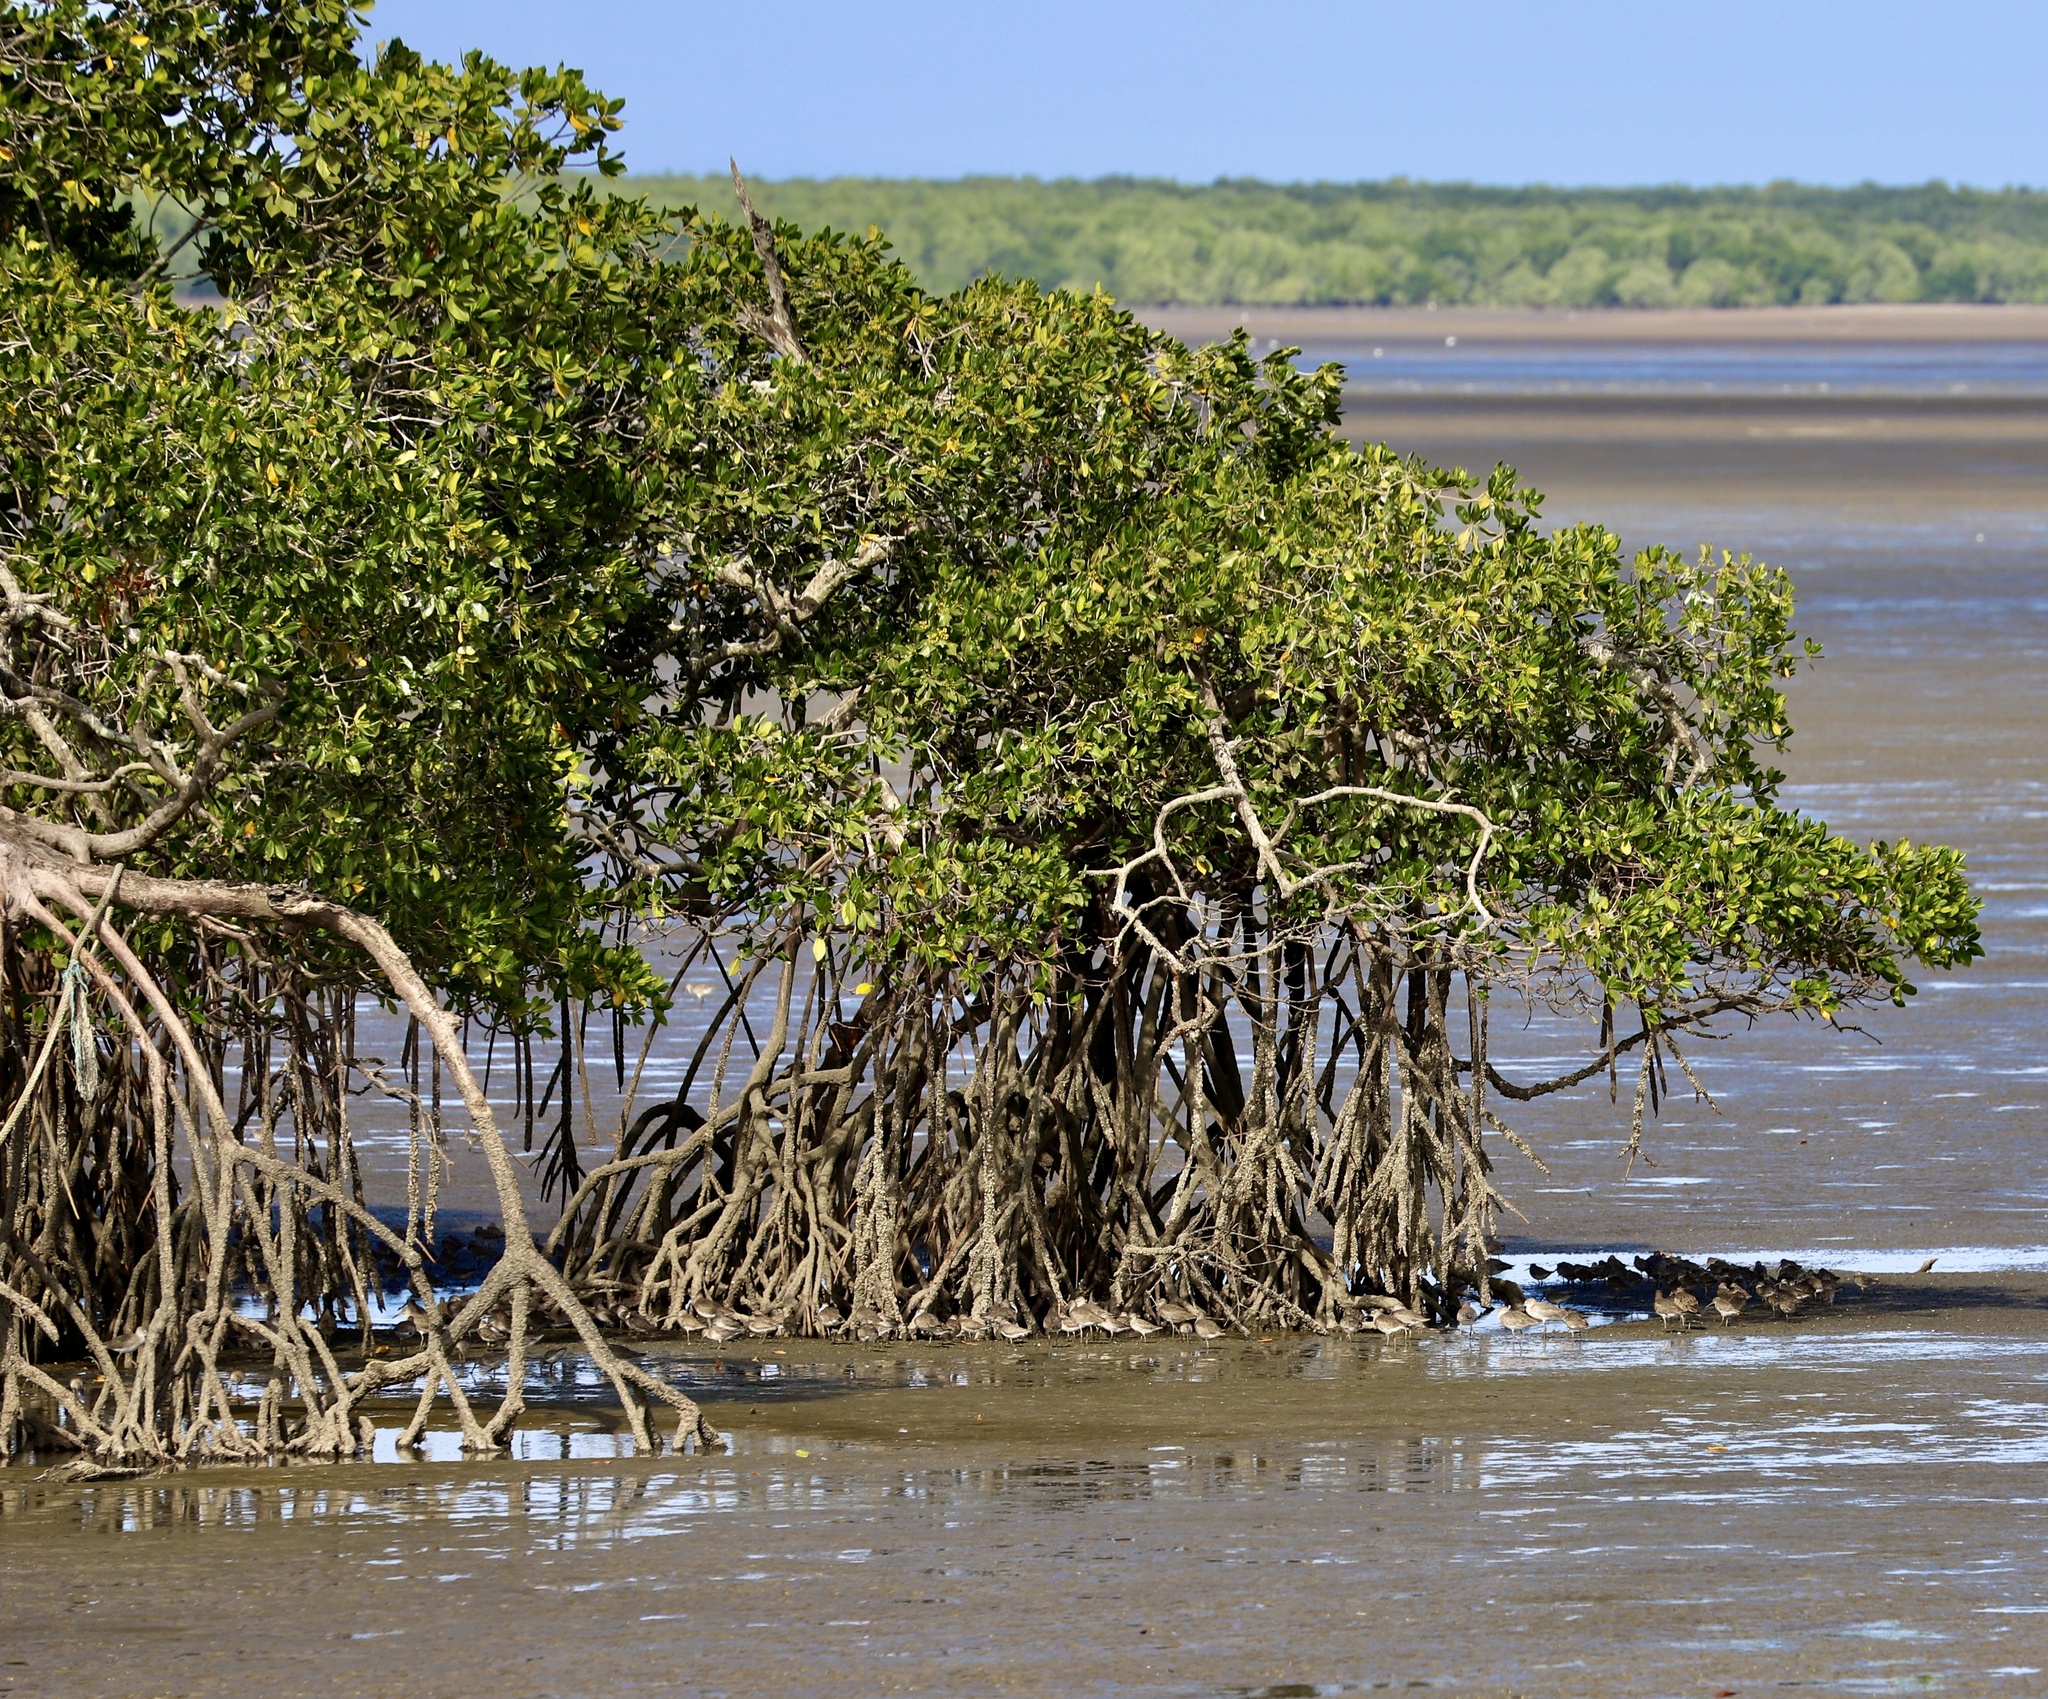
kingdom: Plantae
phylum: Tracheophyta
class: Magnoliopsida
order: Malpighiales
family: Rhizophoraceae
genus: Rhizophora
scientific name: Rhizophora mangle
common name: Red mangrove
